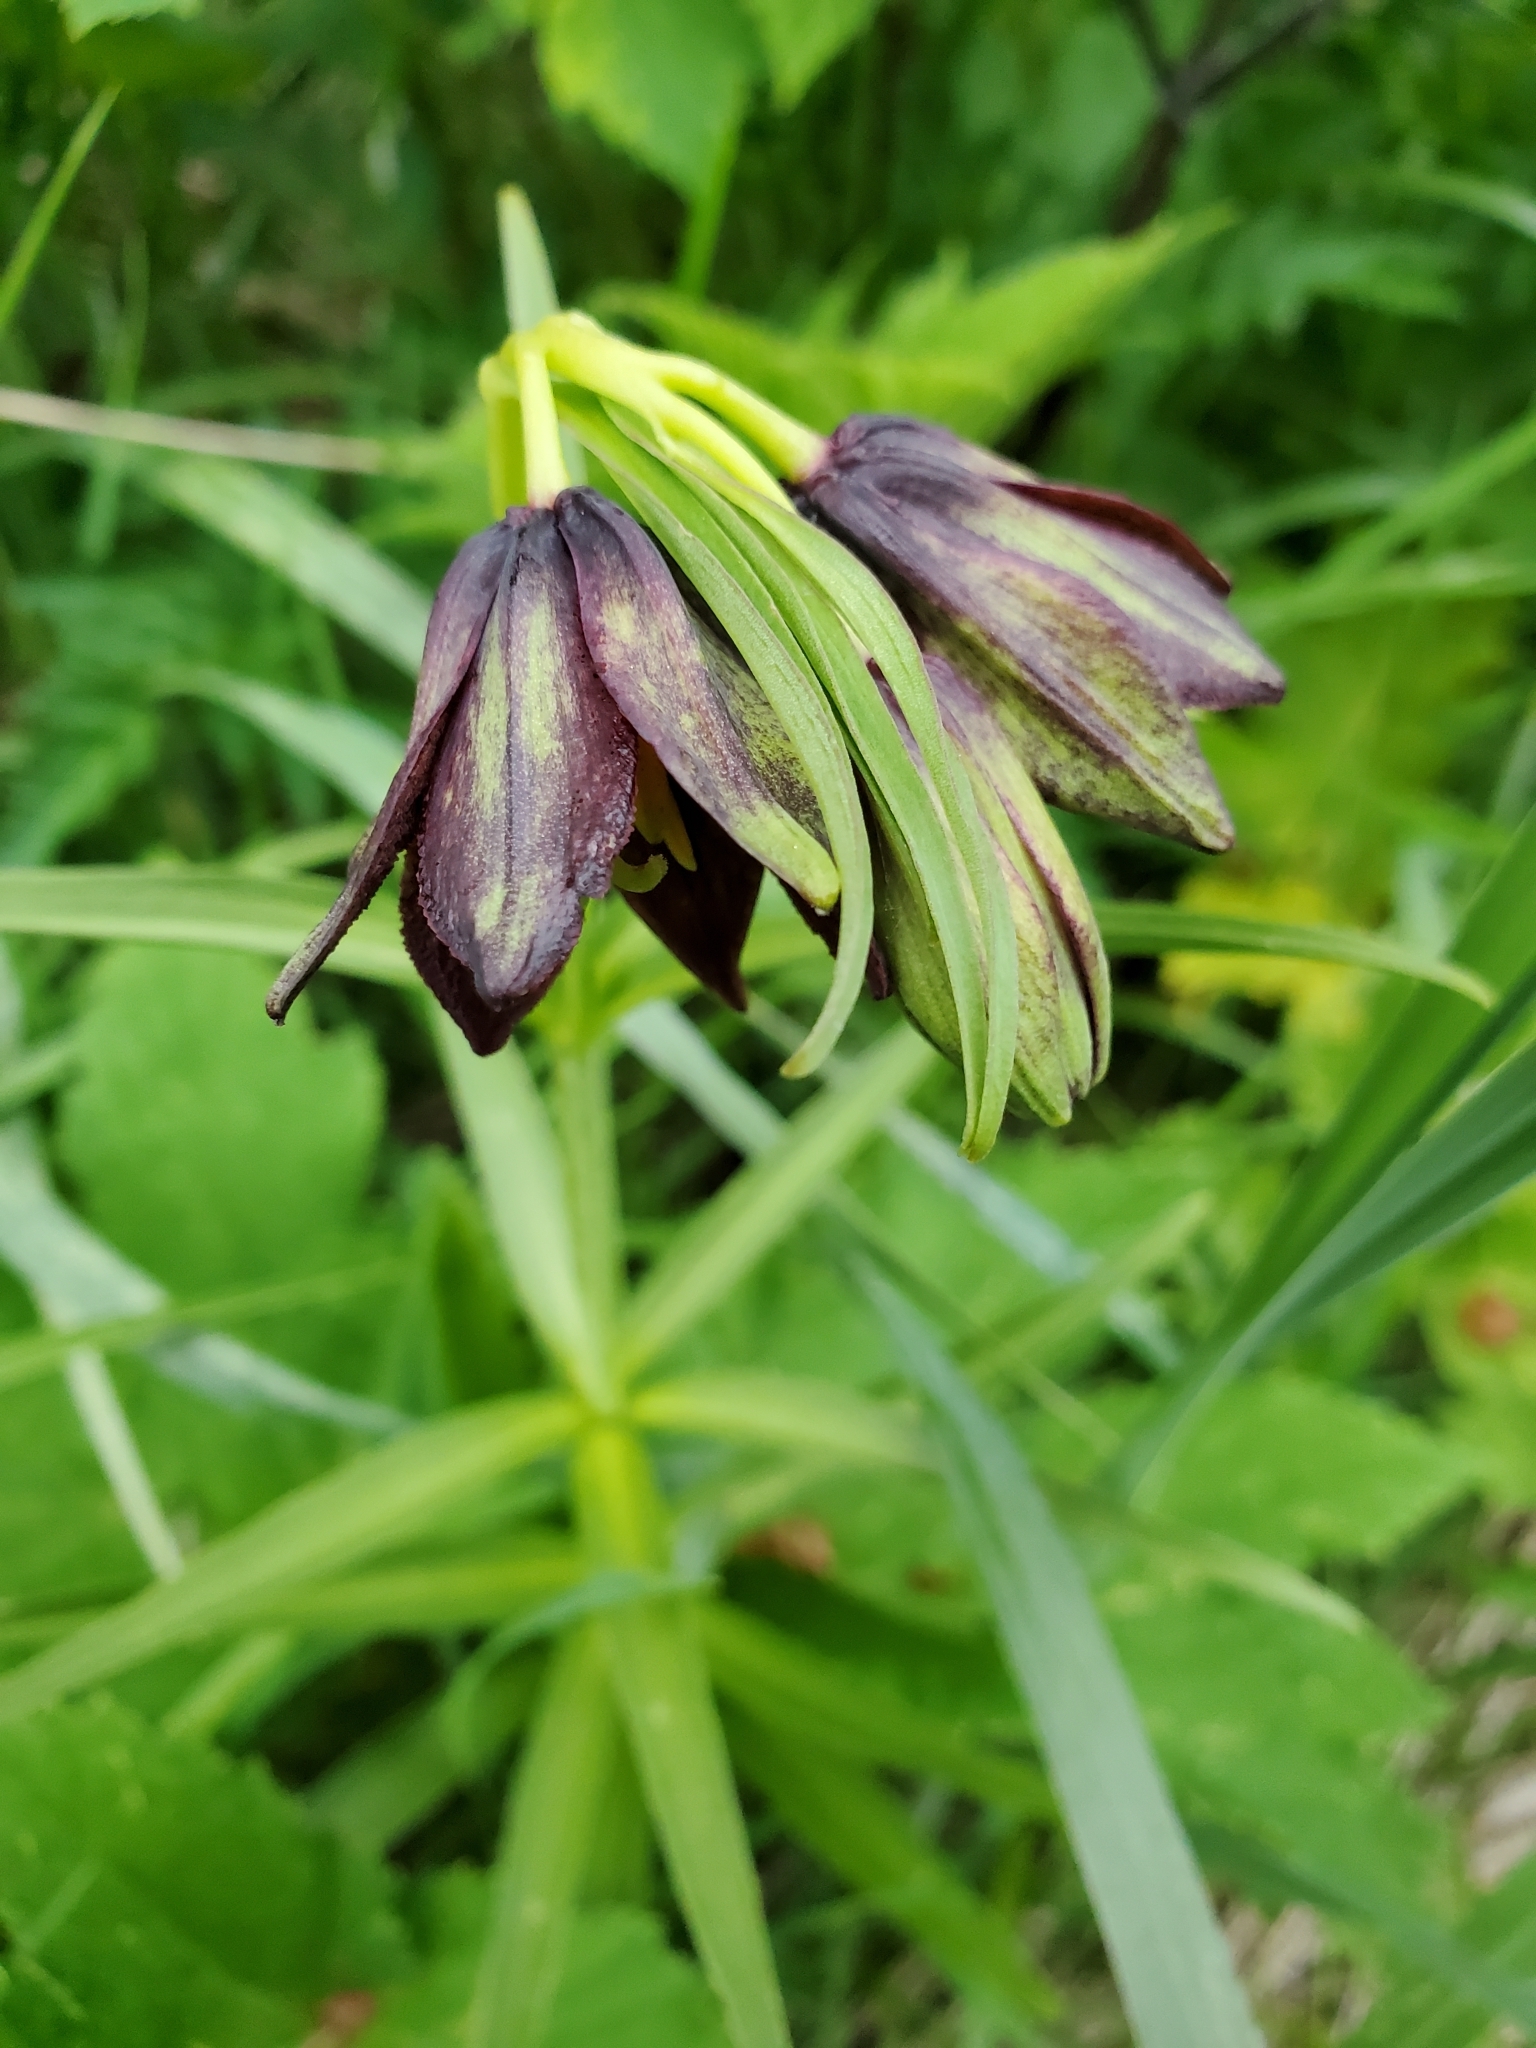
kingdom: Plantae
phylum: Tracheophyta
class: Liliopsida
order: Liliales
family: Liliaceae
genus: Fritillaria
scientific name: Fritillaria camschatcensis
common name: Kamchatka fritillary
